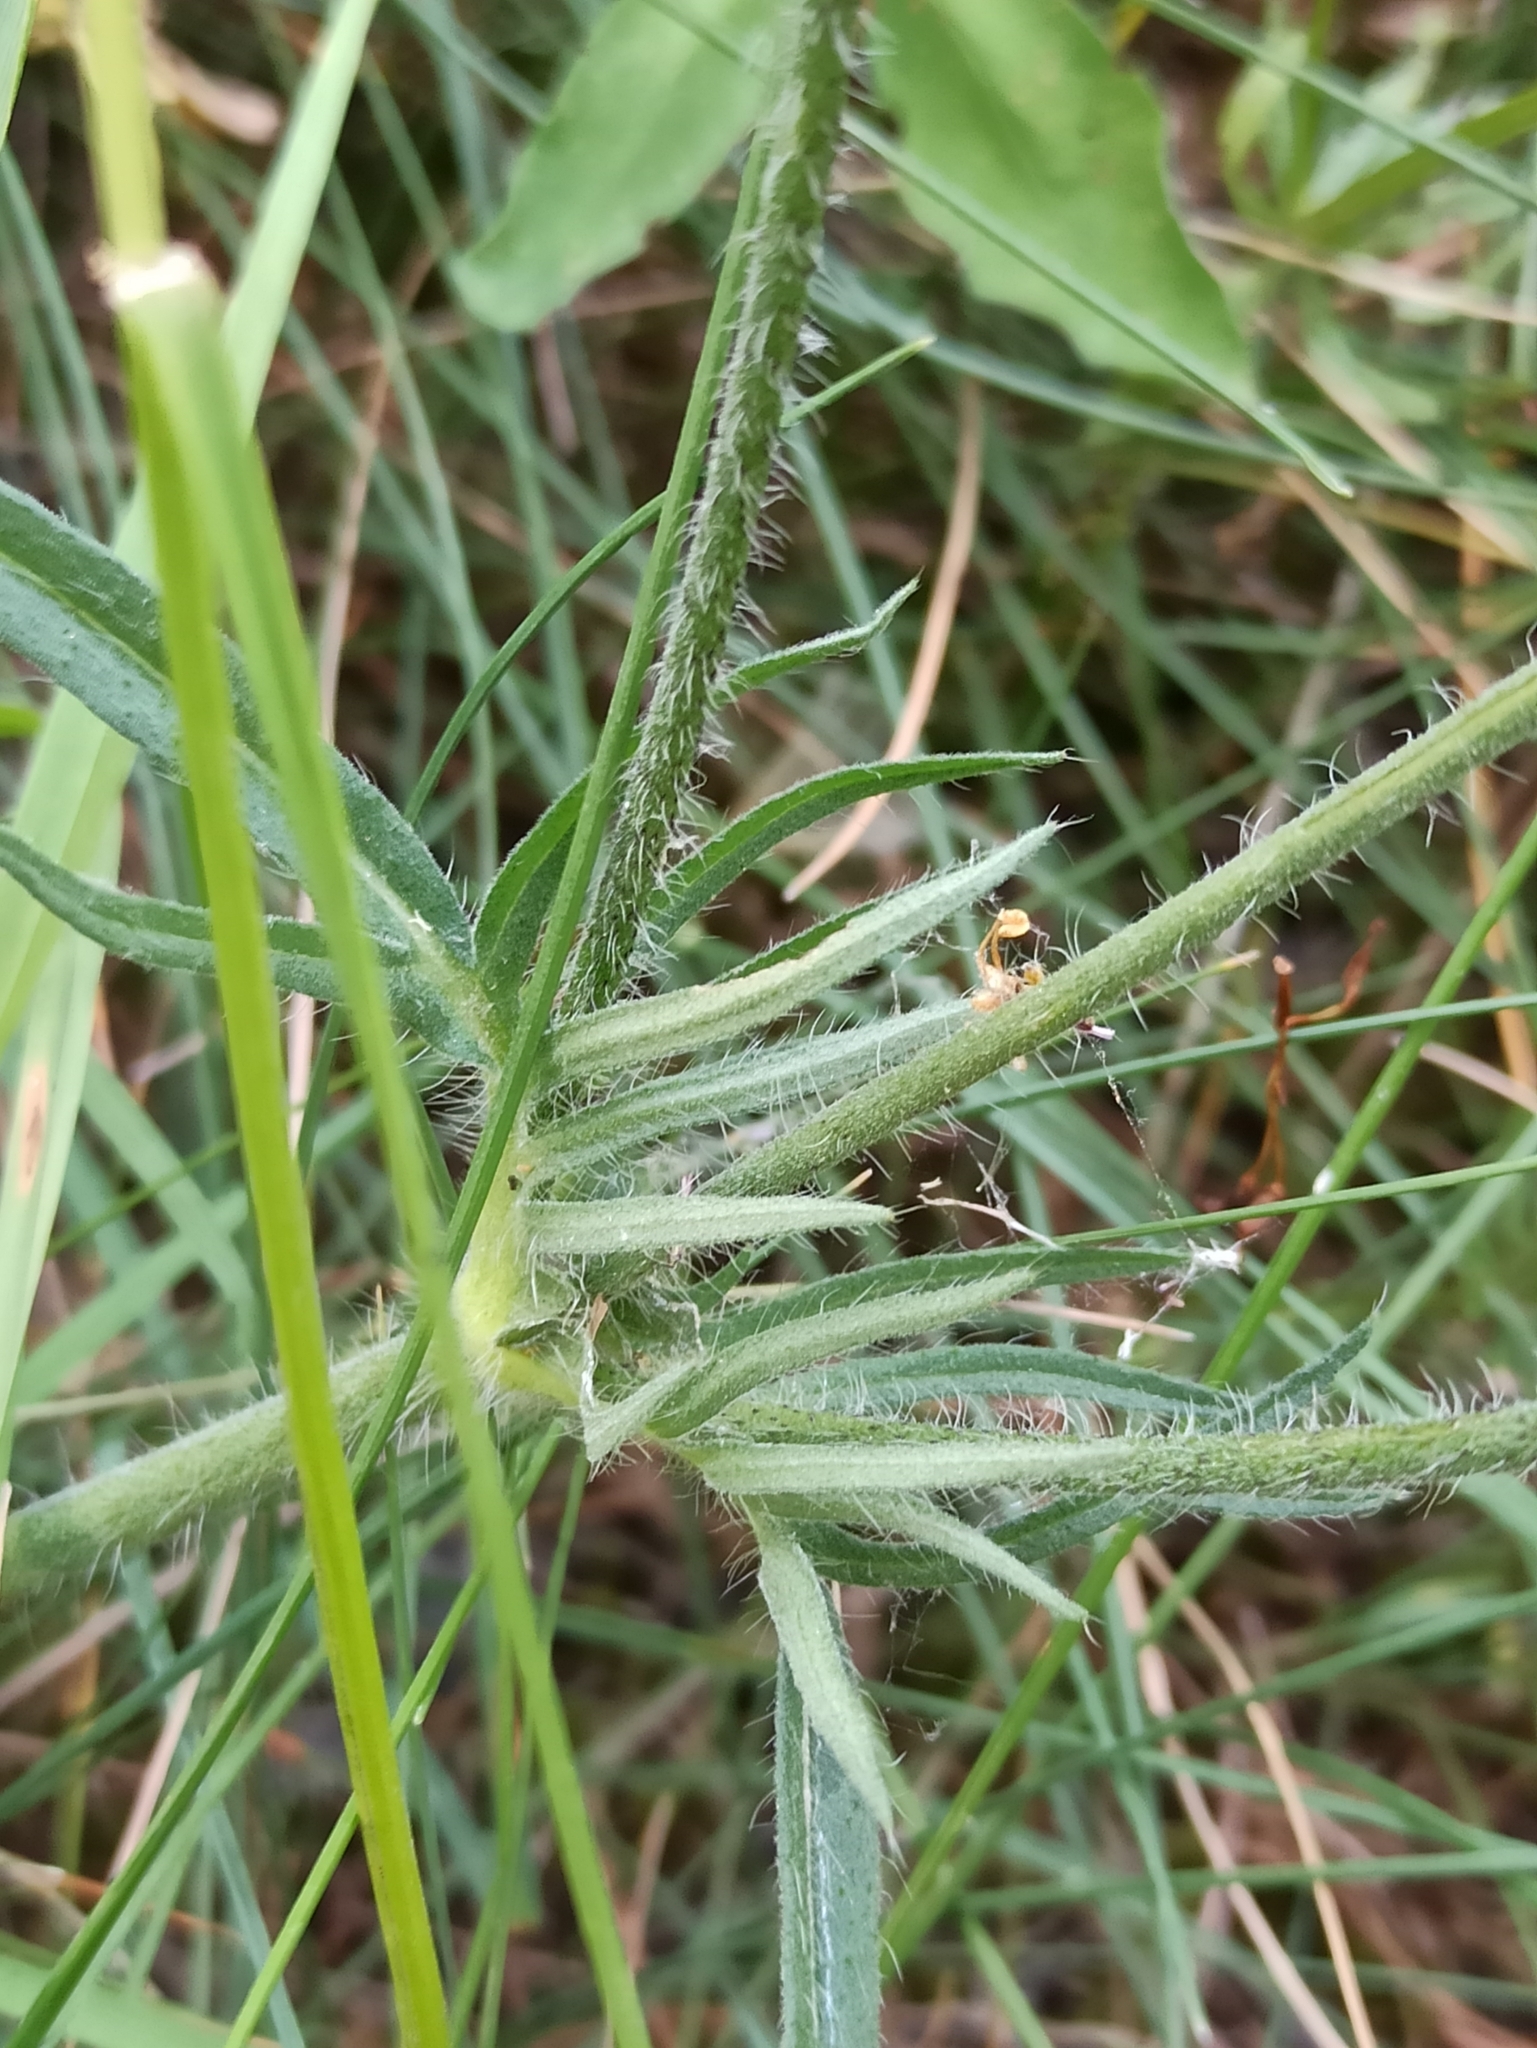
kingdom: Plantae
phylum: Tracheophyta
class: Magnoliopsida
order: Dipsacales
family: Caprifoliaceae
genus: Knautia
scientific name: Knautia arvensis
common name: Field scabiosa
